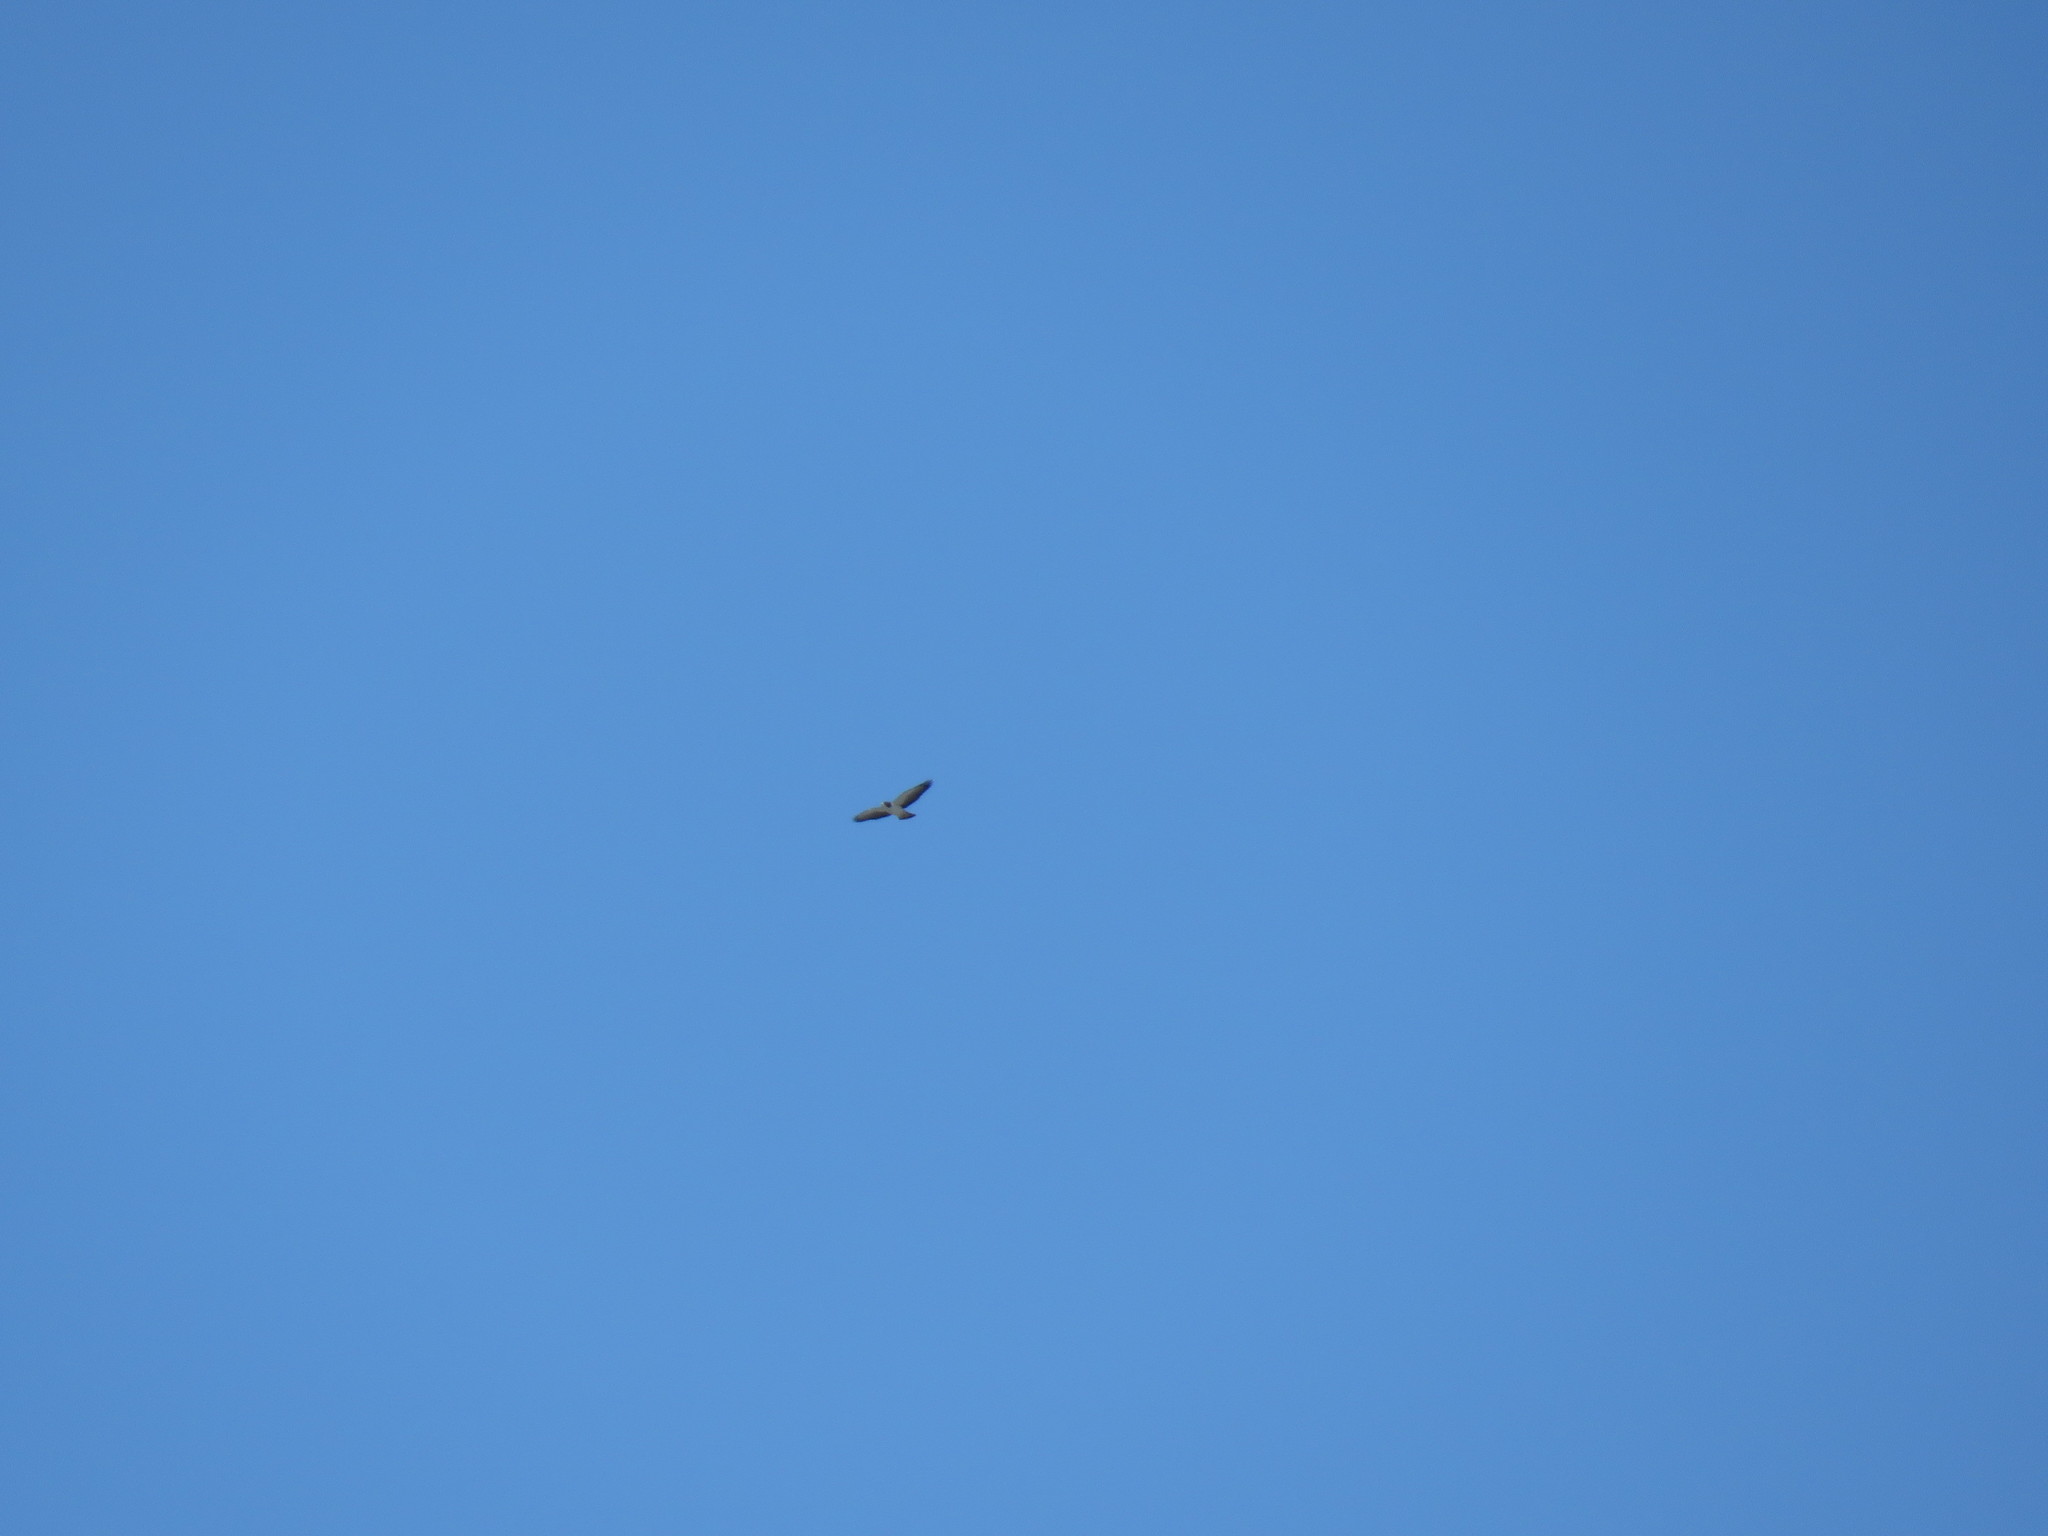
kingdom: Animalia
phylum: Chordata
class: Aves
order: Accipitriformes
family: Accipitridae
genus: Buteo
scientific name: Buteo brachyurus
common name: Short-tailed hawk
